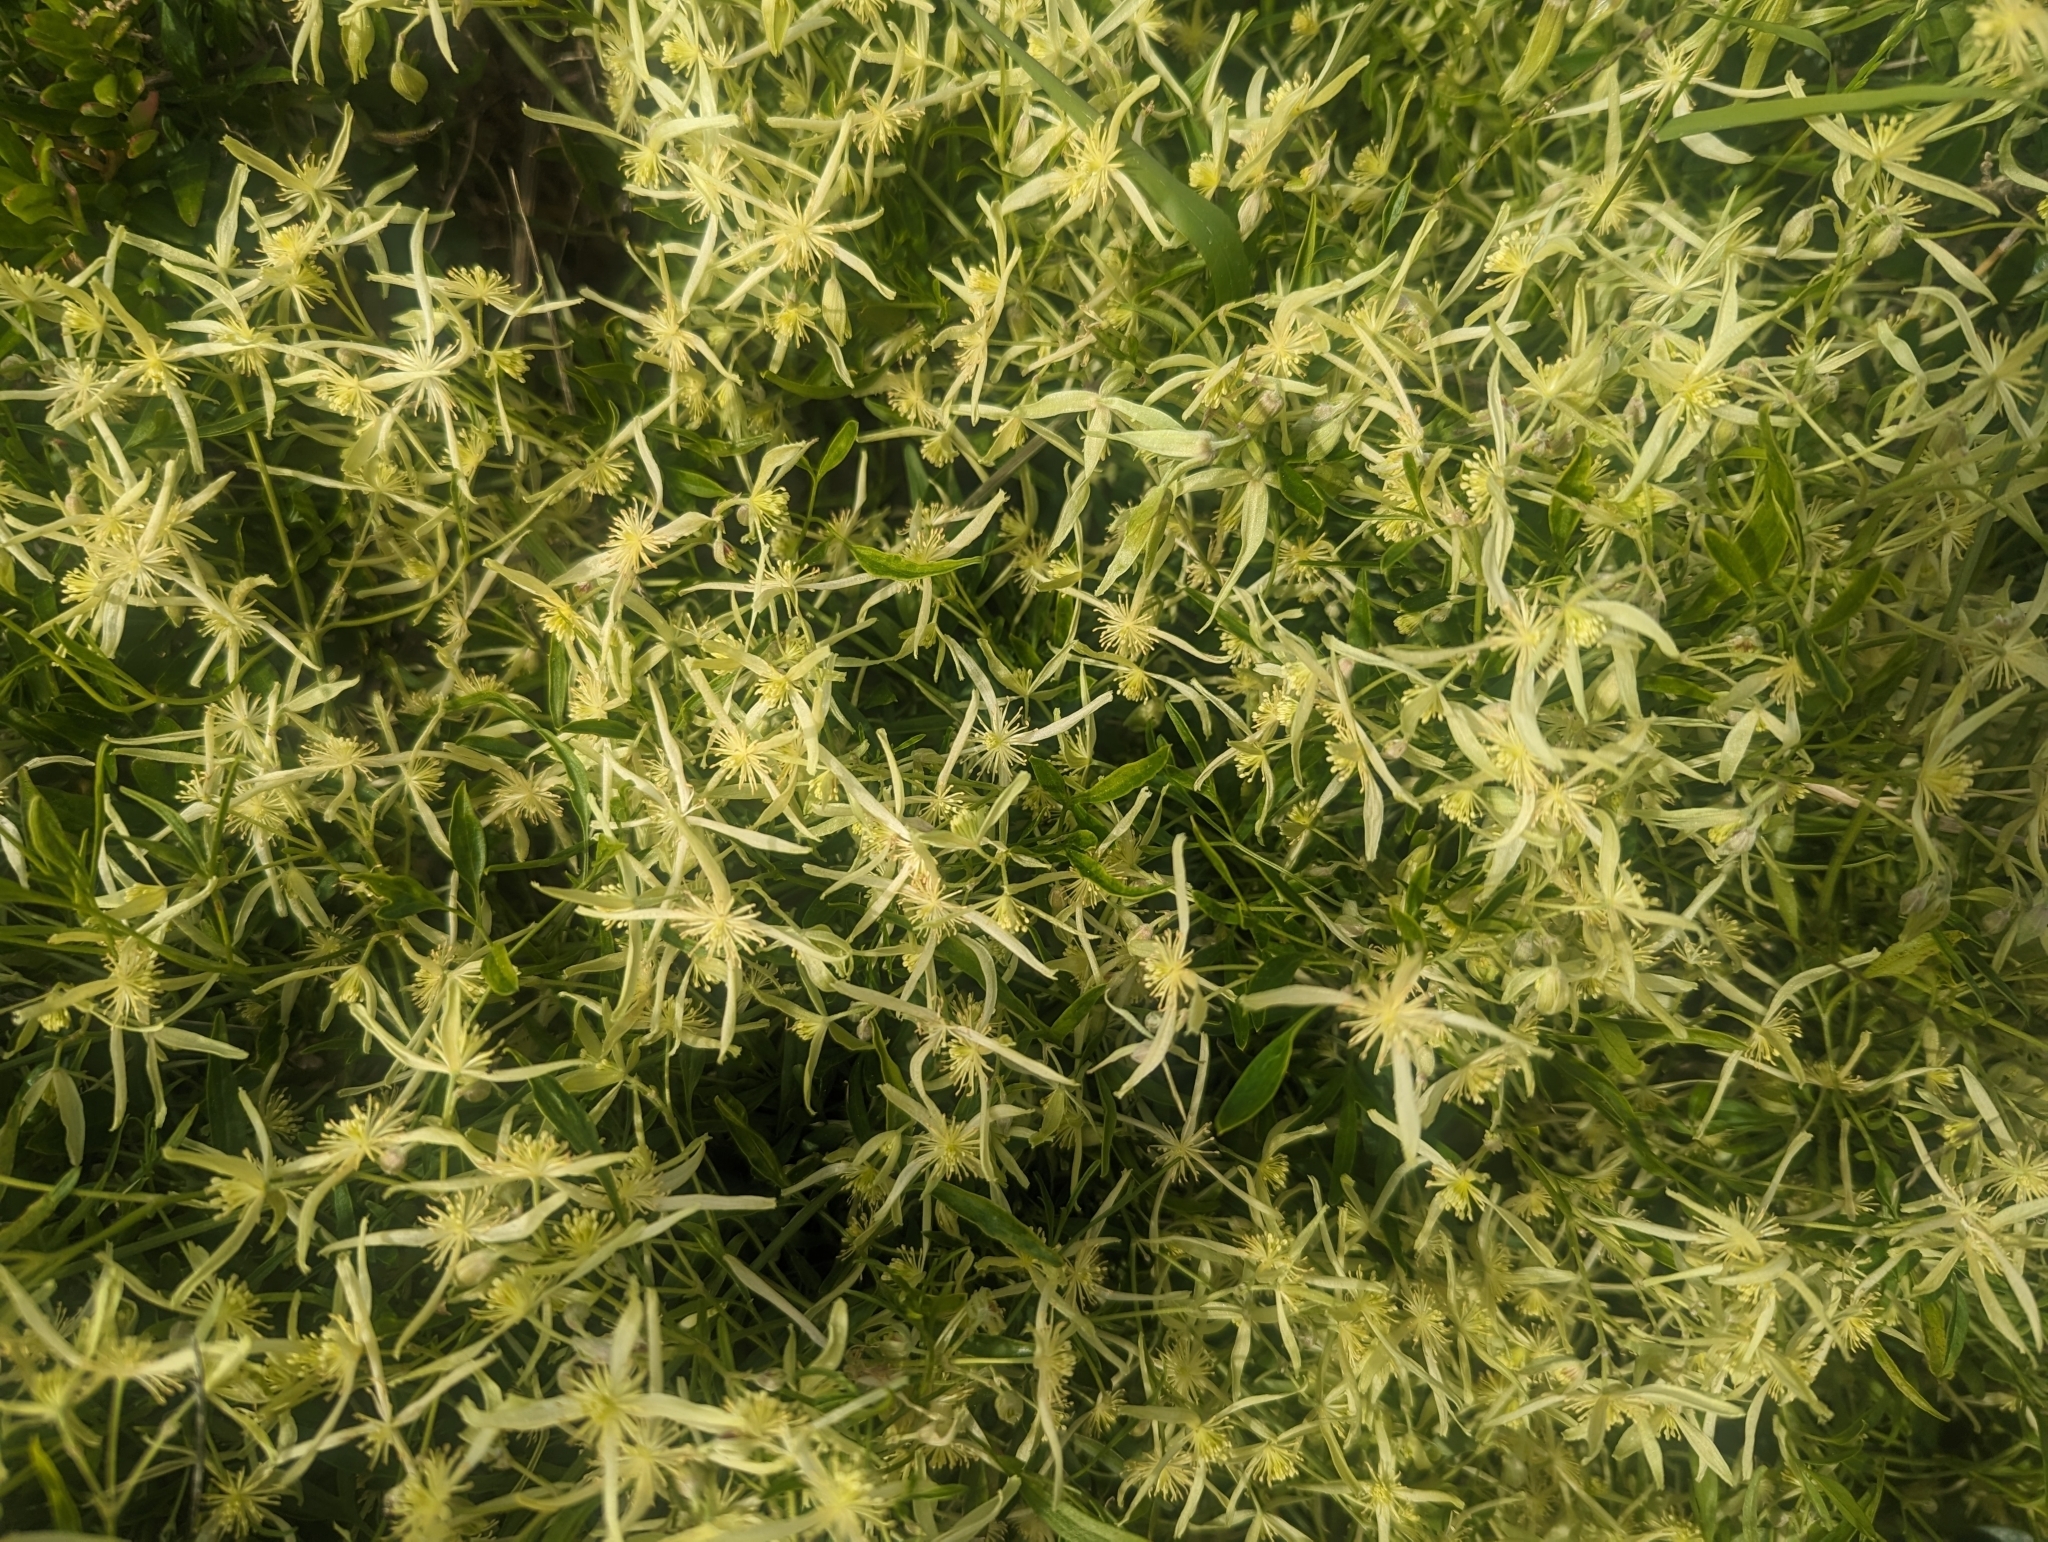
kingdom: Plantae
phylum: Tracheophyta
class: Magnoliopsida
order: Ranunculales
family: Ranunculaceae
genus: Clematis
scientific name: Clematis microphylla
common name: Headachevine
